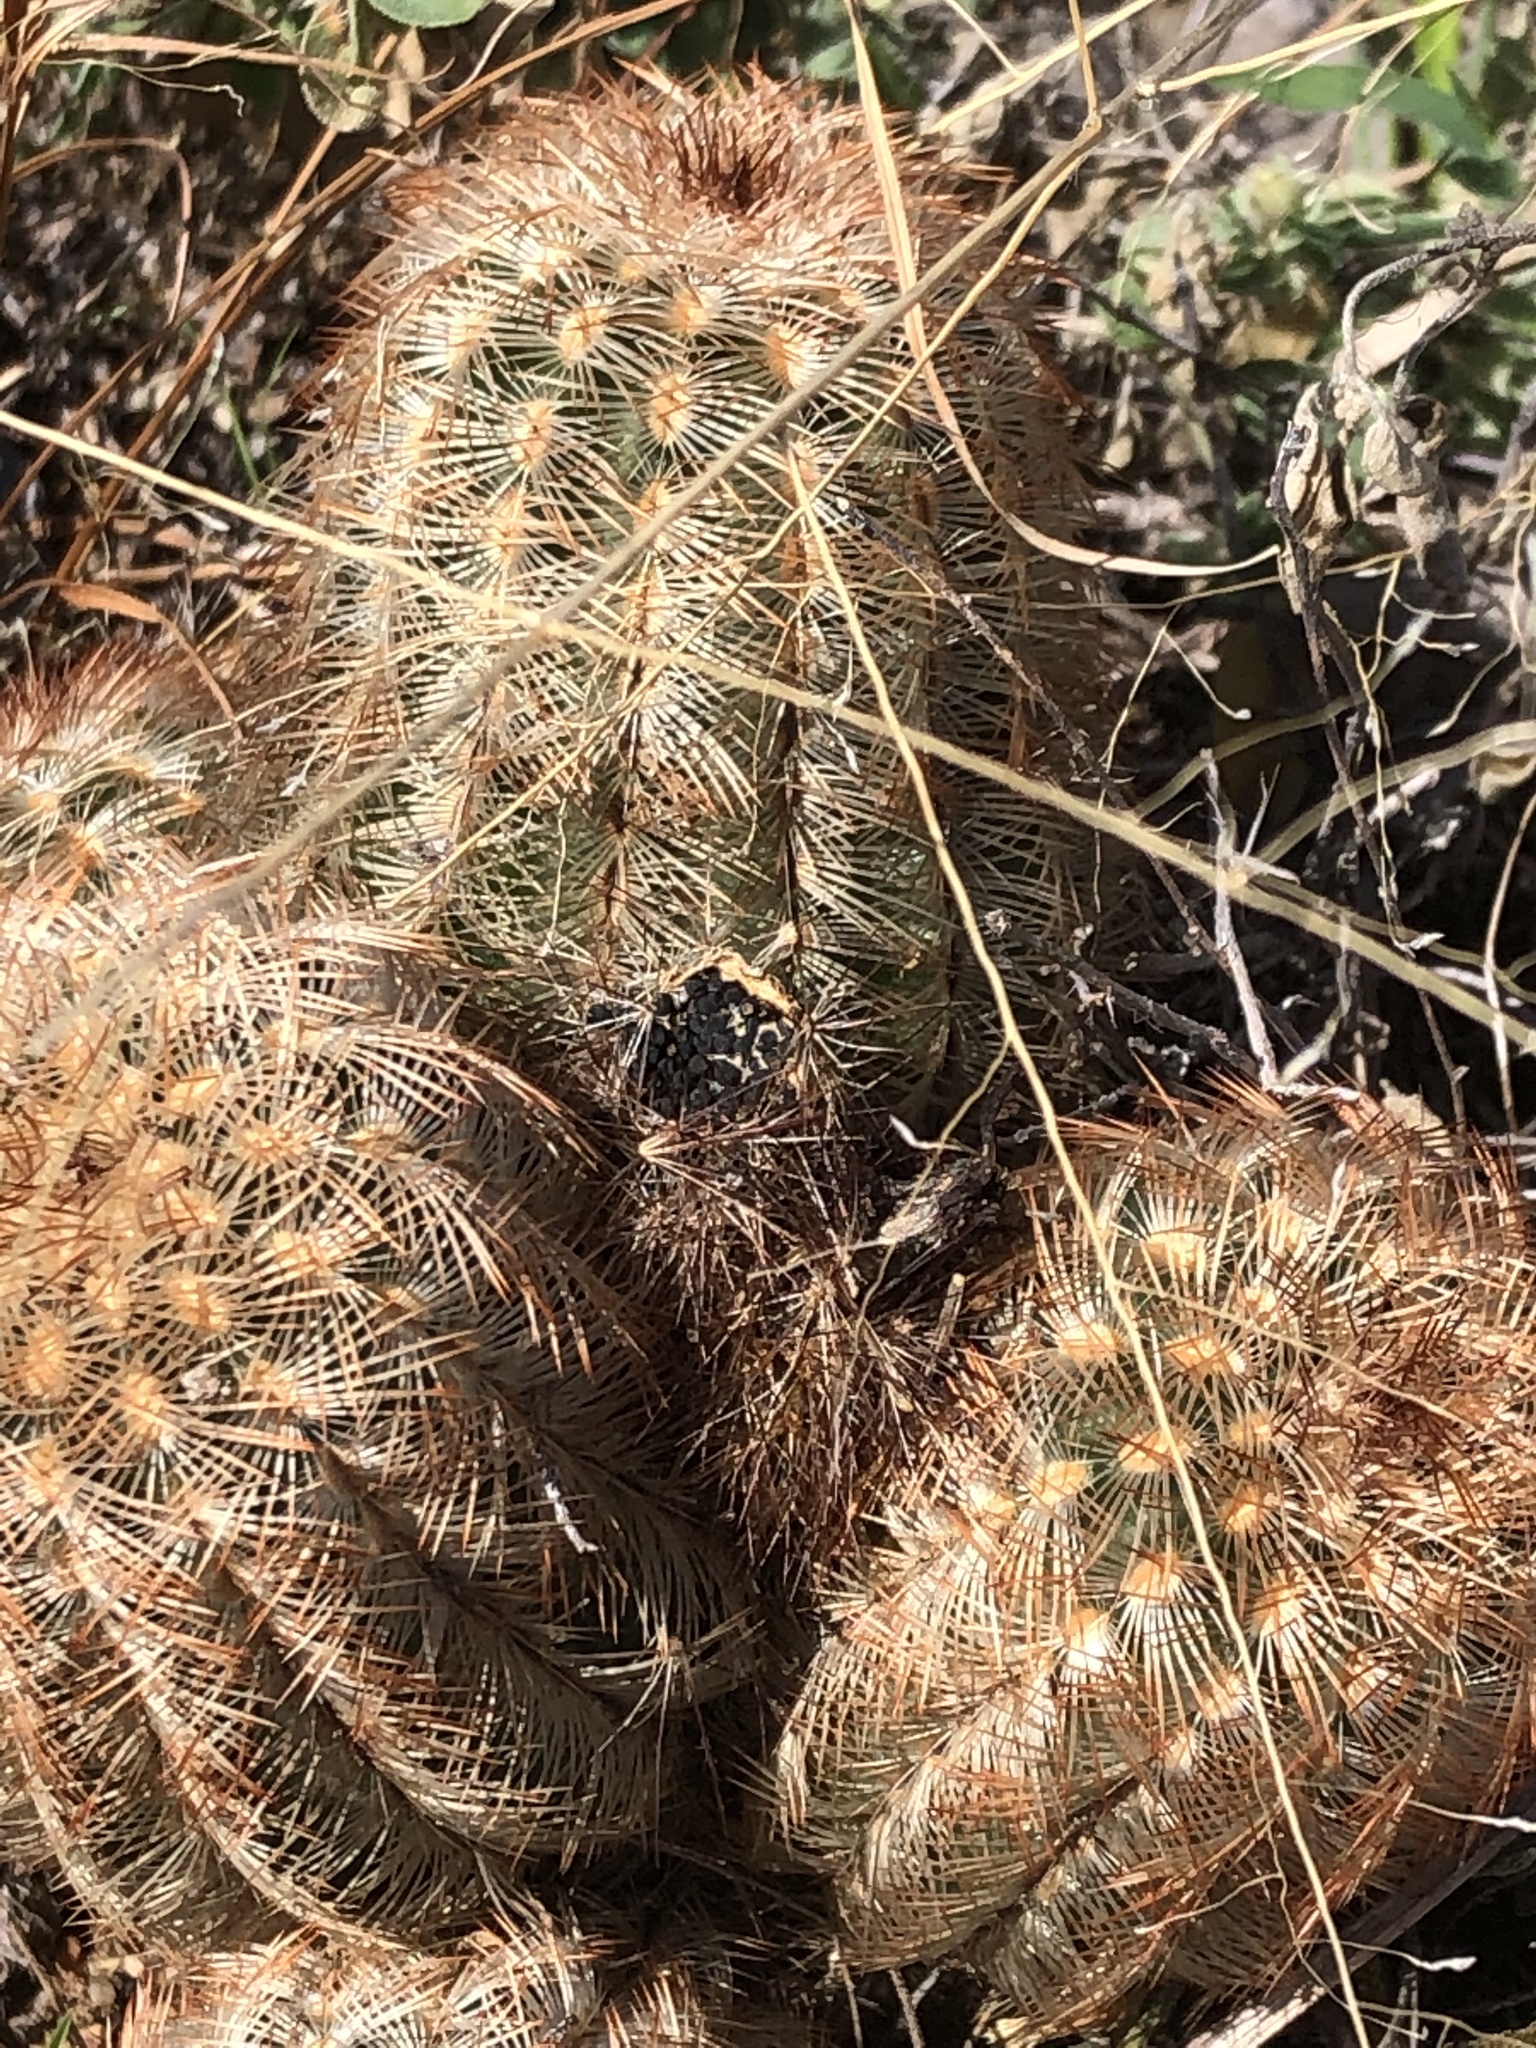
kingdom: Plantae
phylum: Tracheophyta
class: Magnoliopsida
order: Caryophyllales
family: Cactaceae
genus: Echinocereus
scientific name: Echinocereus reichenbachii
